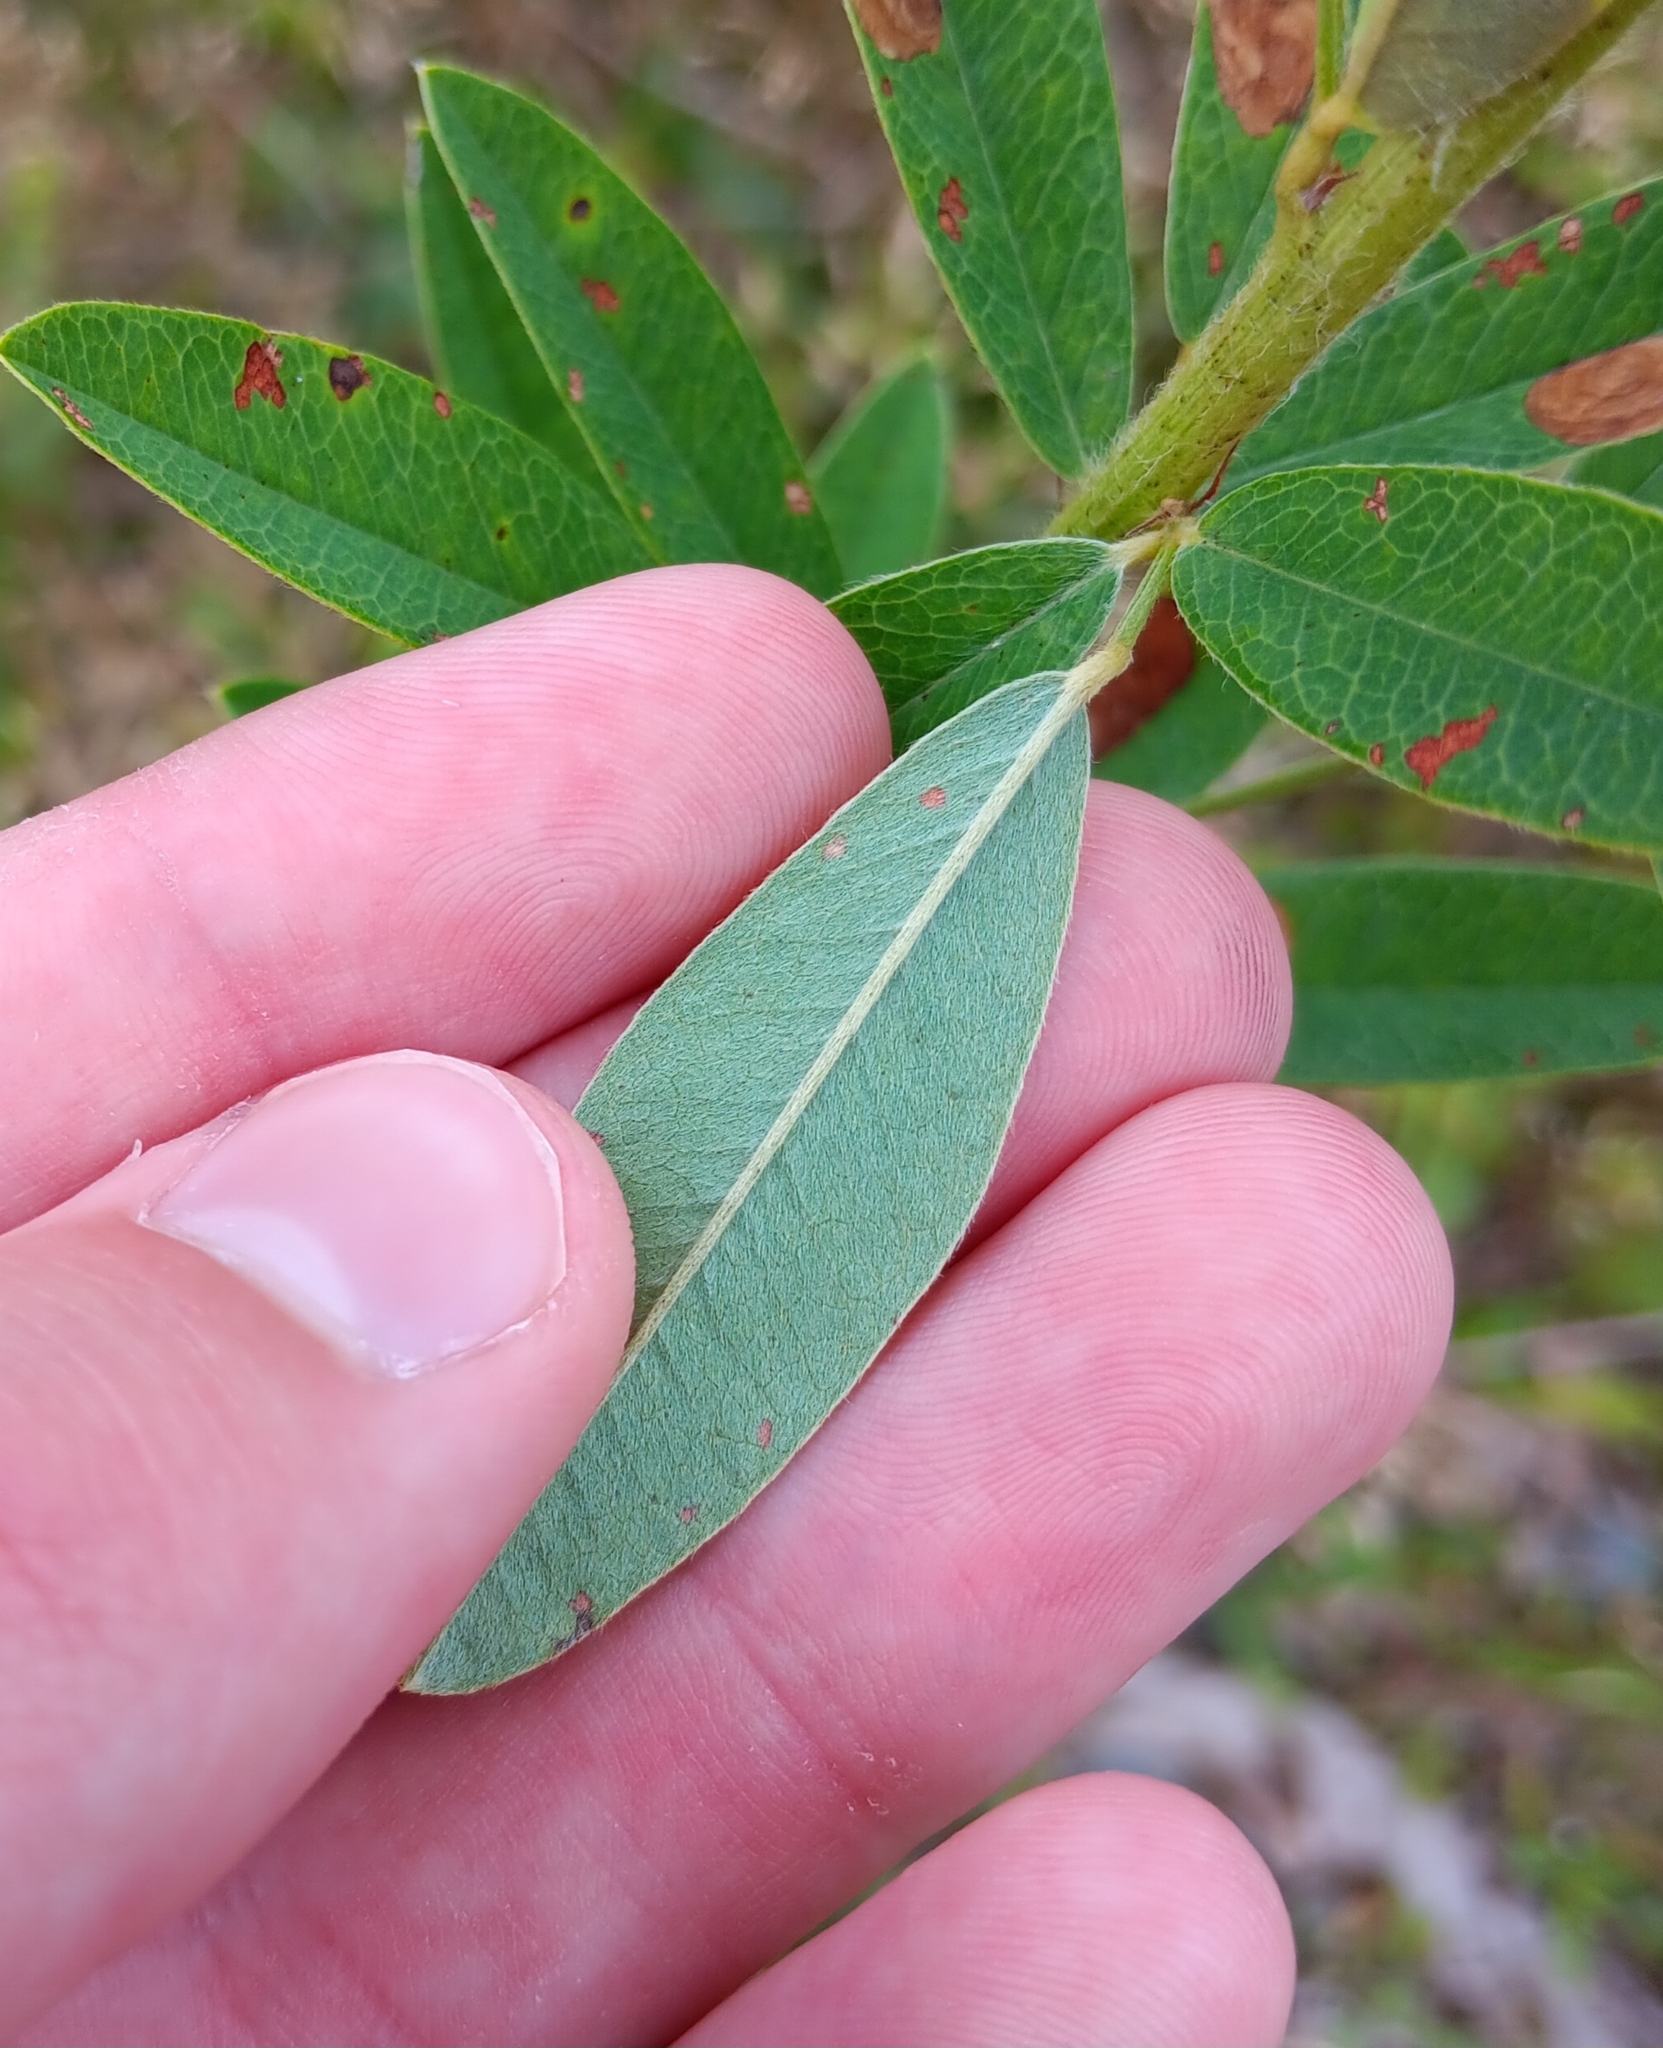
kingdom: Plantae
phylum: Tracheophyta
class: Magnoliopsida
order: Fabales
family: Fabaceae
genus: Lespedeza
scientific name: Lespedeza capitata
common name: Dusty clover
